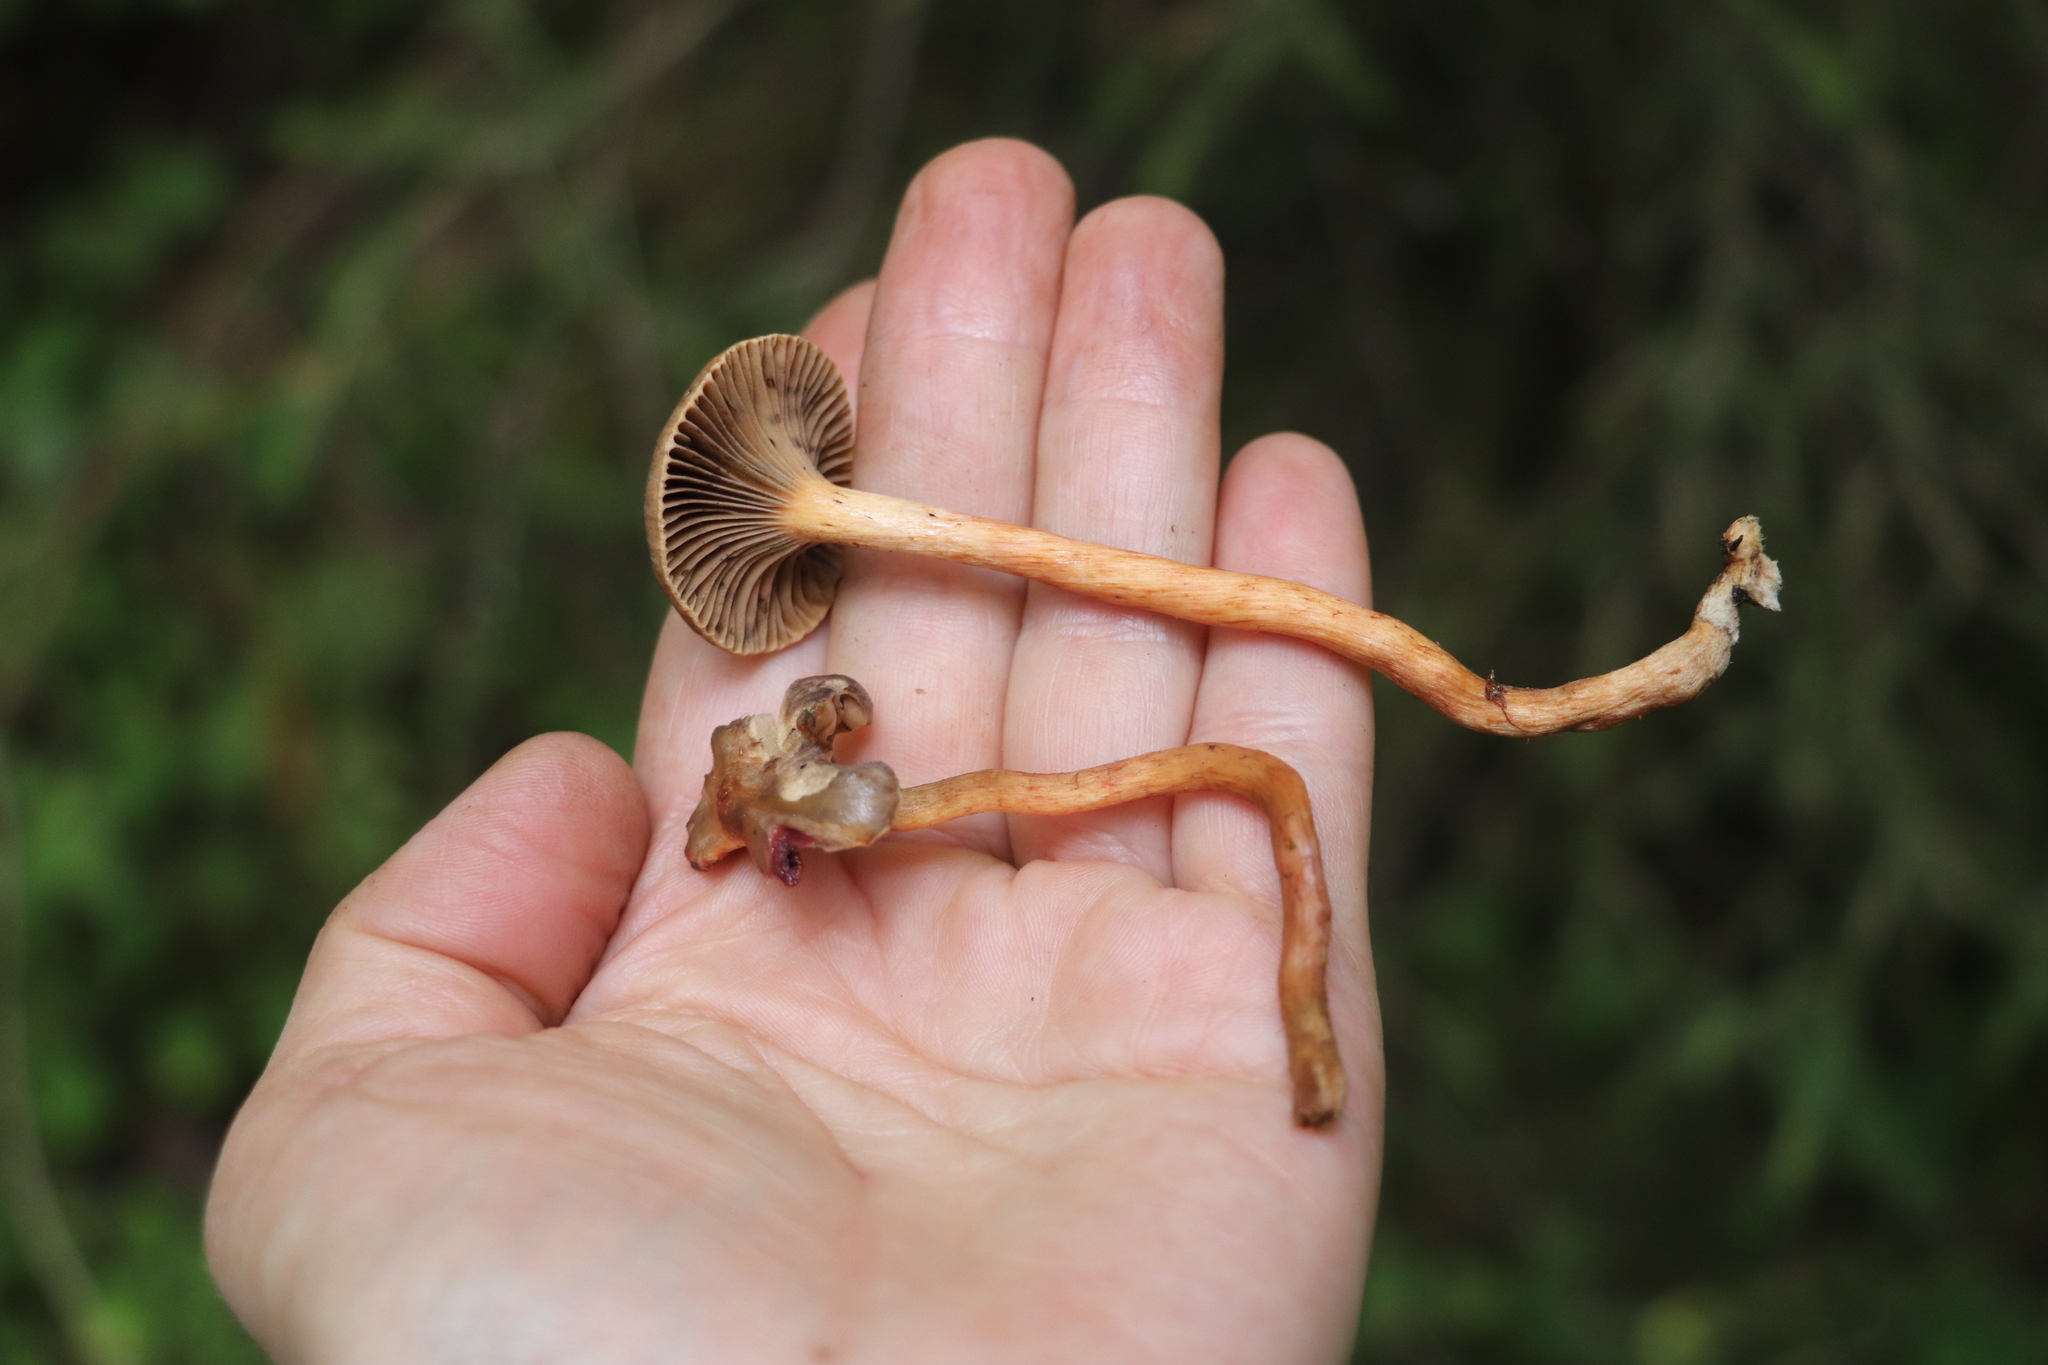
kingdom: Fungi
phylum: Basidiomycota
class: Agaricomycetes
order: Boletales
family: Gomphidiaceae
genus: Chroogomphus
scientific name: Chroogomphus rutilus
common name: Copper spike
